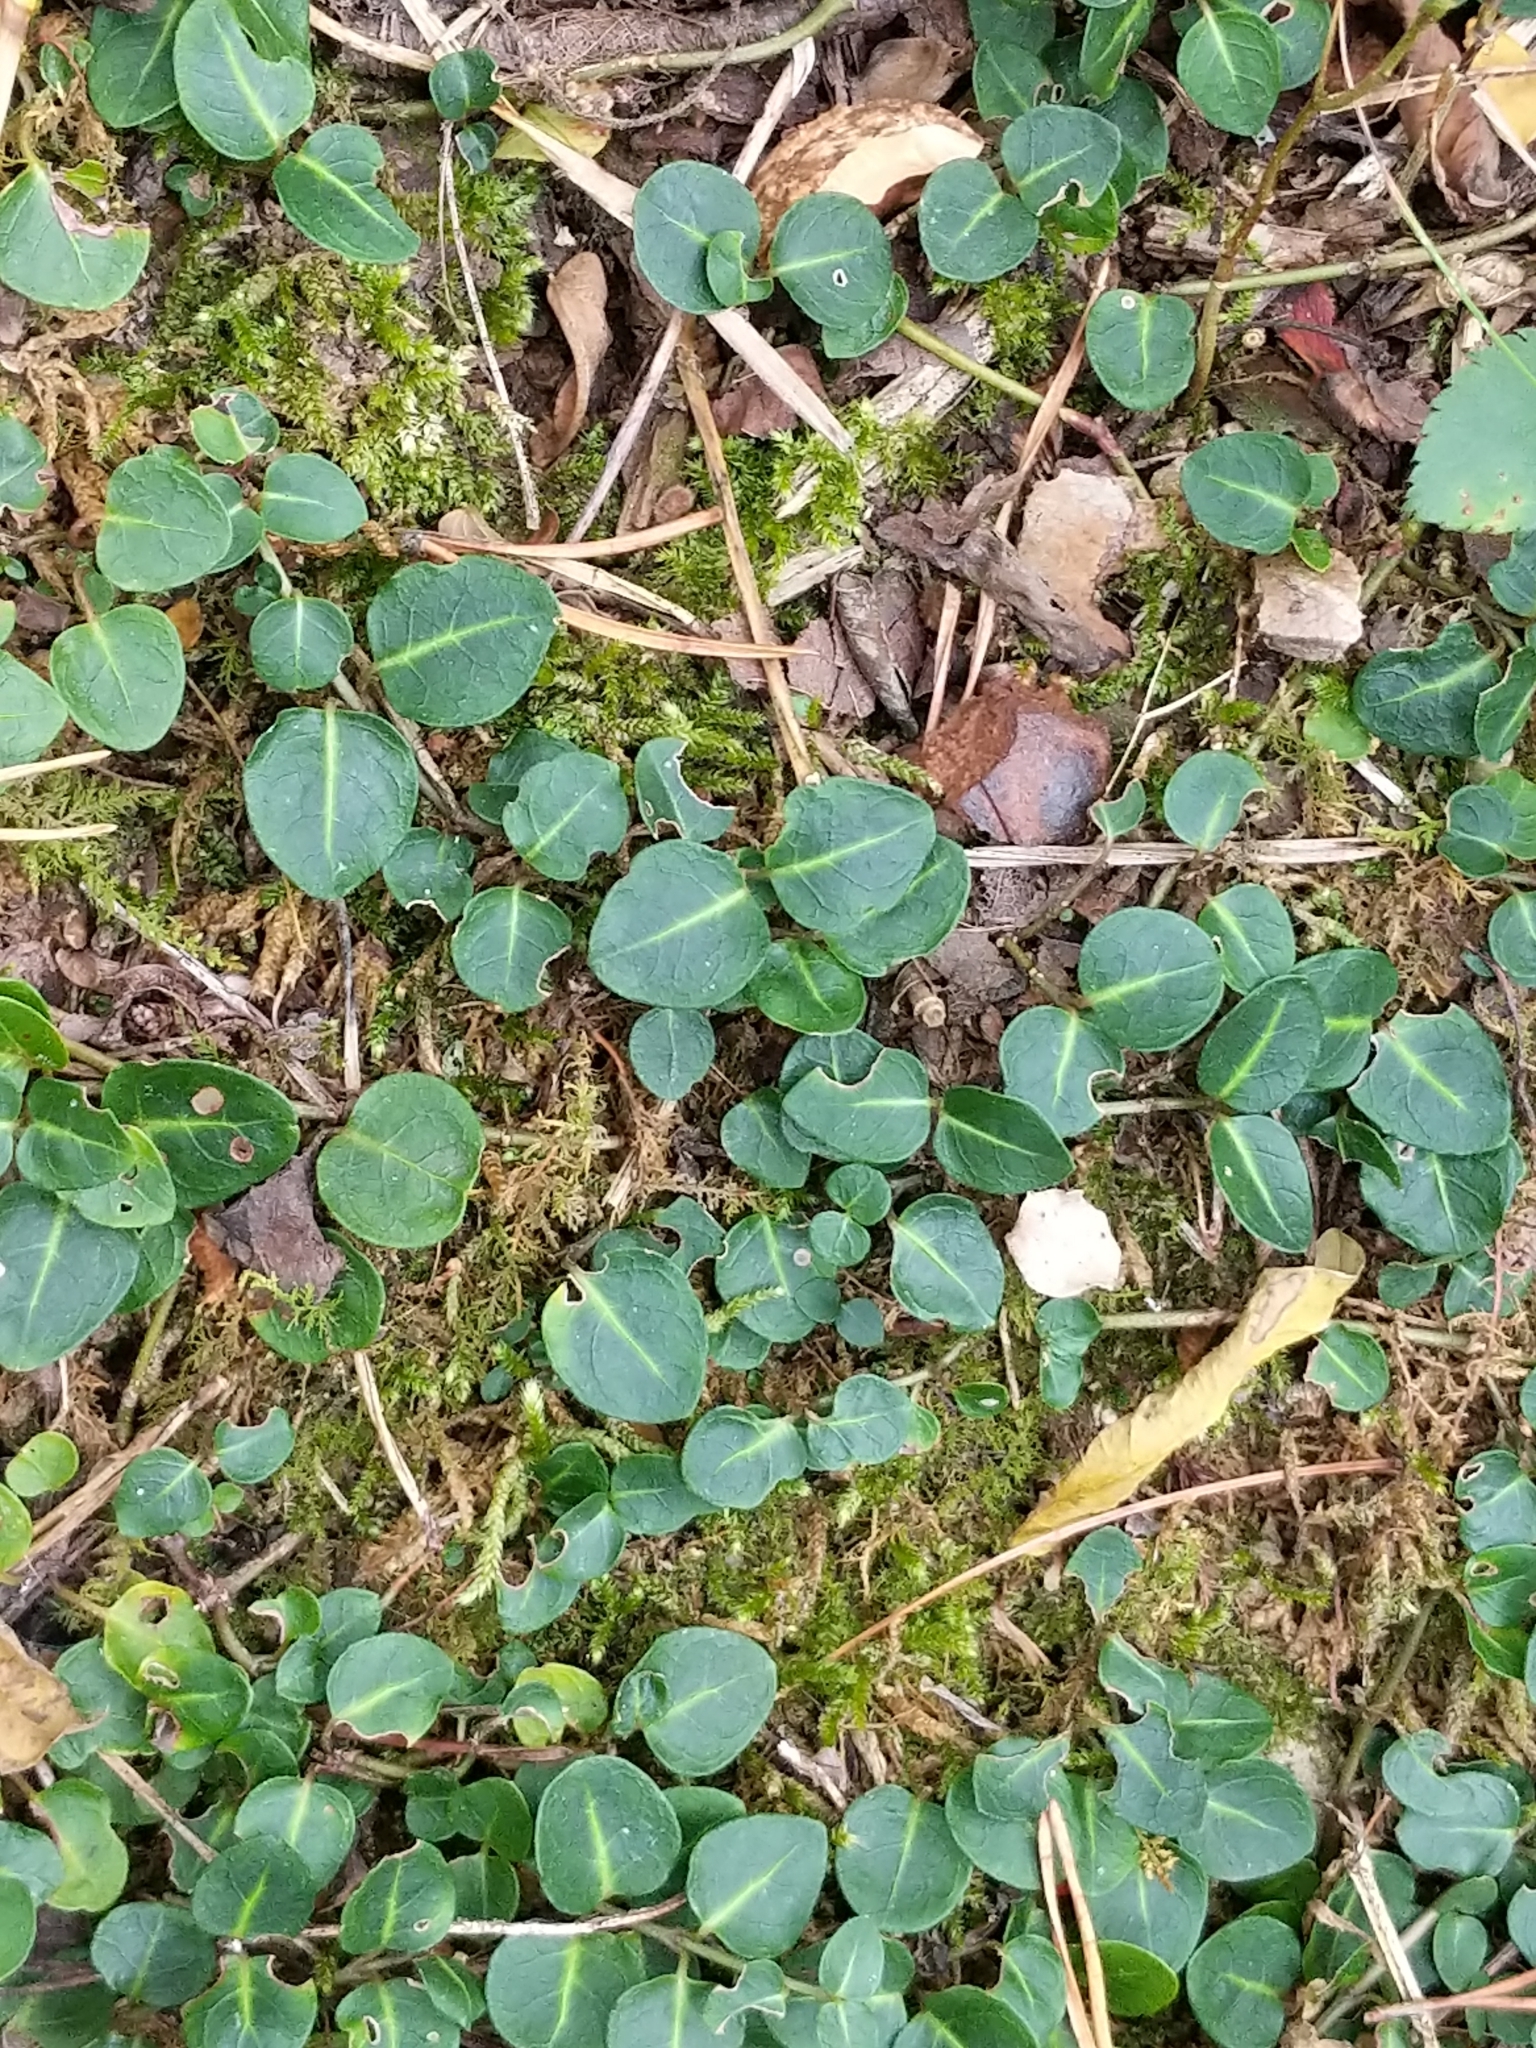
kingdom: Plantae
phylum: Tracheophyta
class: Magnoliopsida
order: Gentianales
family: Rubiaceae
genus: Mitchella
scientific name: Mitchella repens
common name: Partridge-berry
